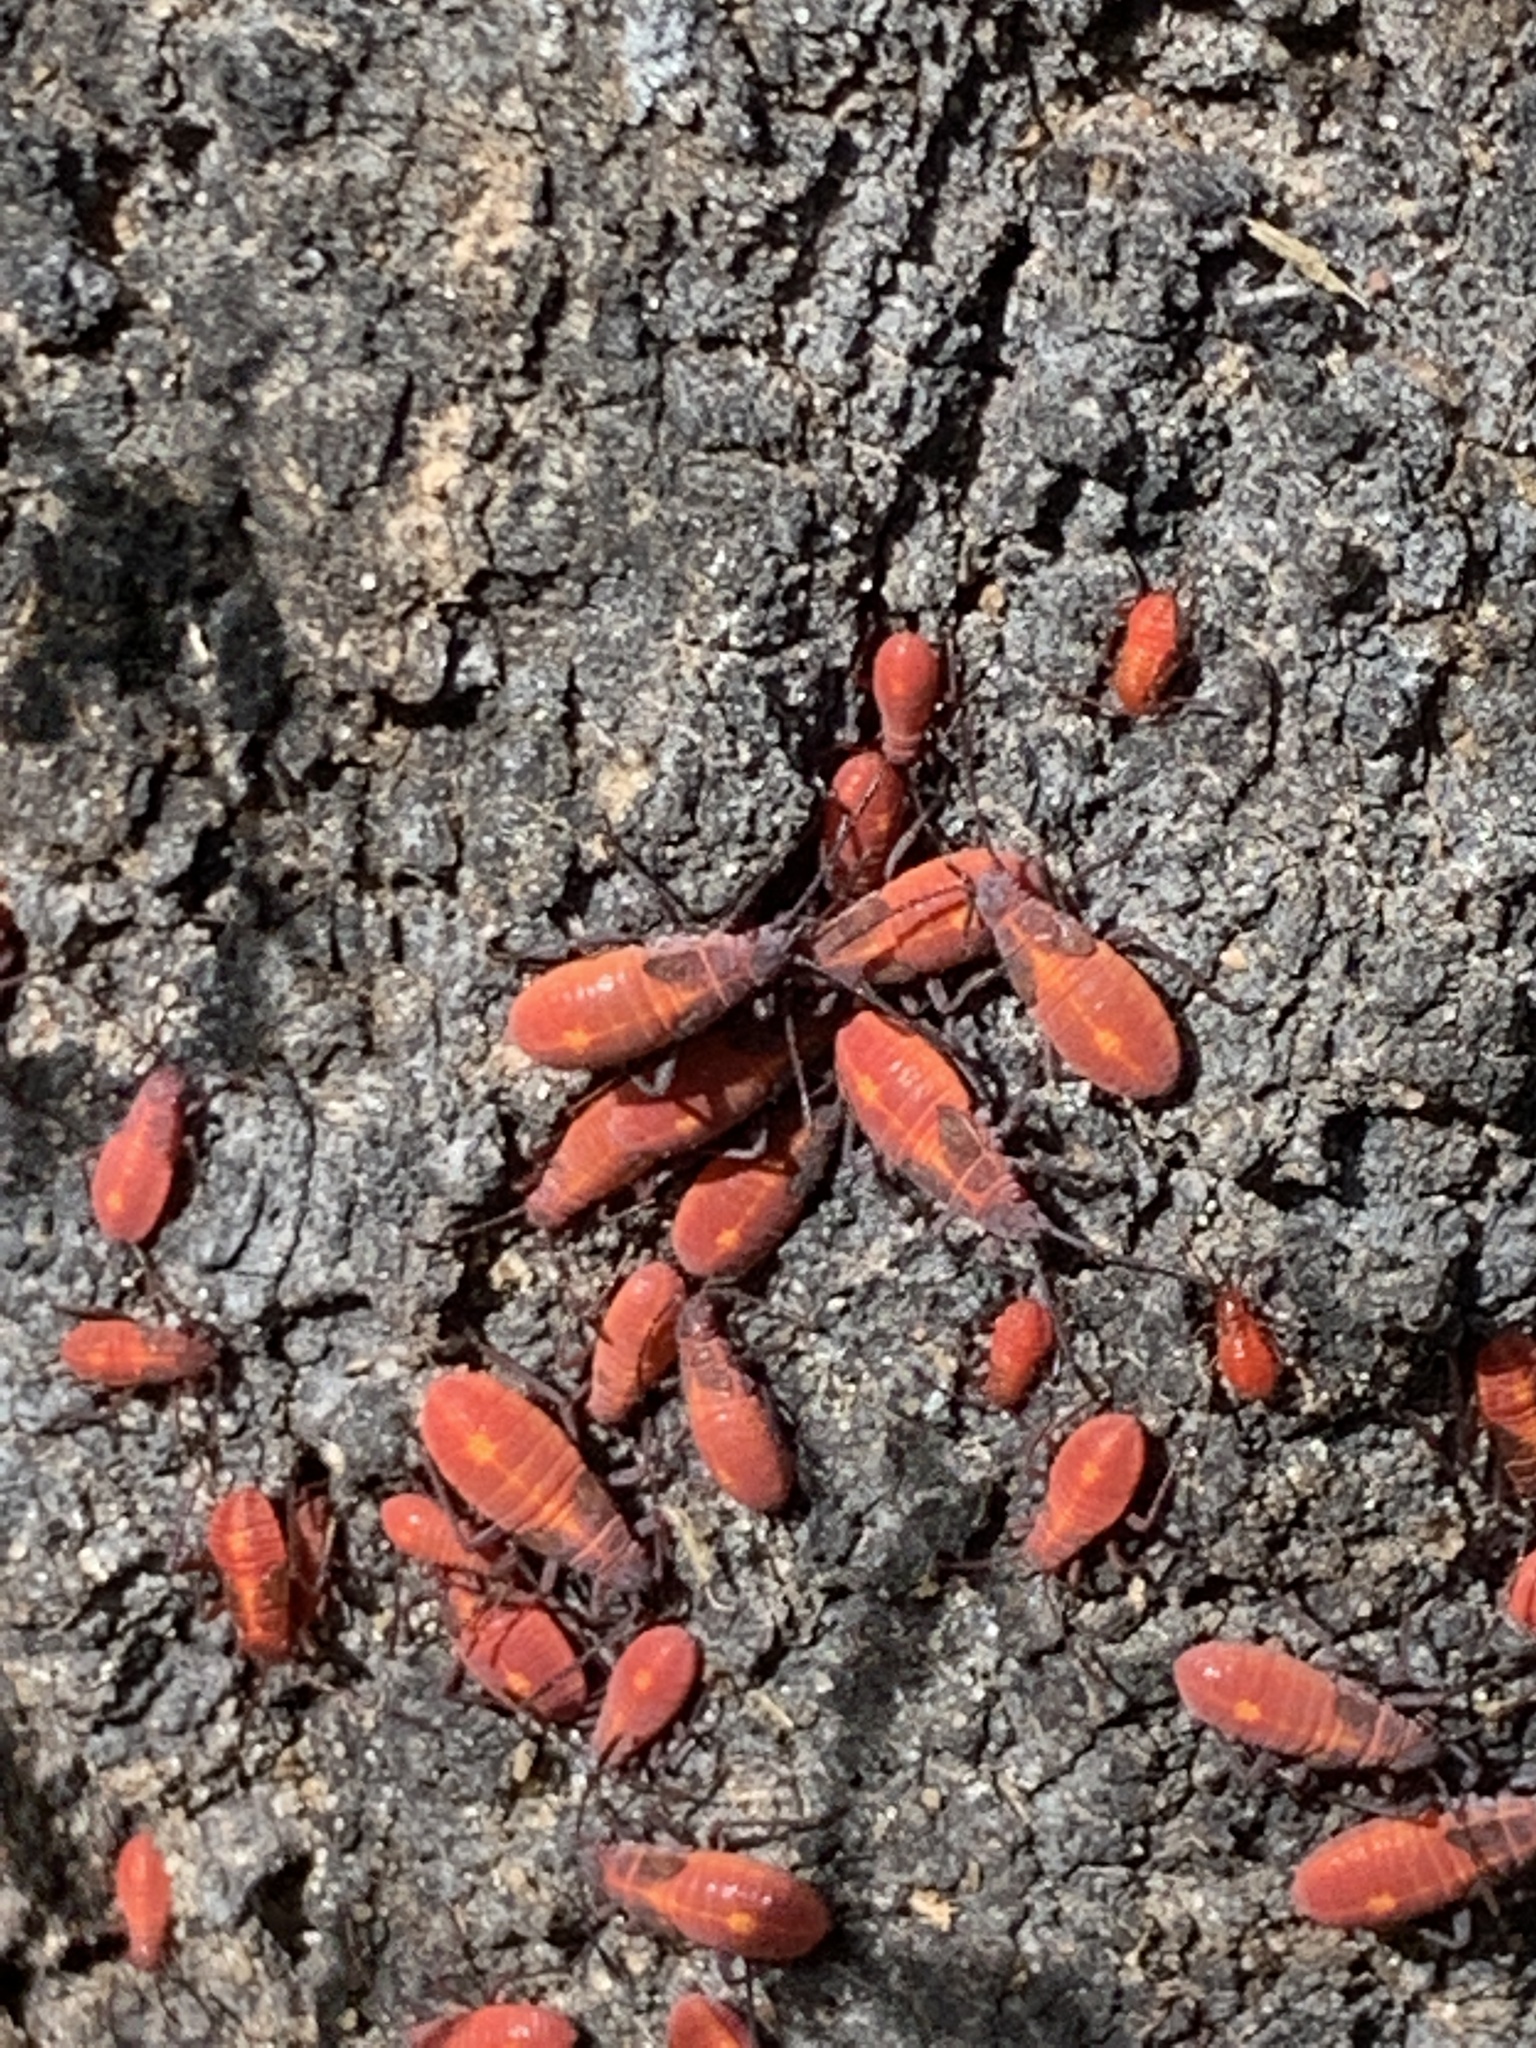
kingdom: Animalia
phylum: Arthropoda
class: Insecta
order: Hemiptera
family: Rhopalidae
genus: Boisea
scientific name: Boisea trivittata
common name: Boxelder bug
